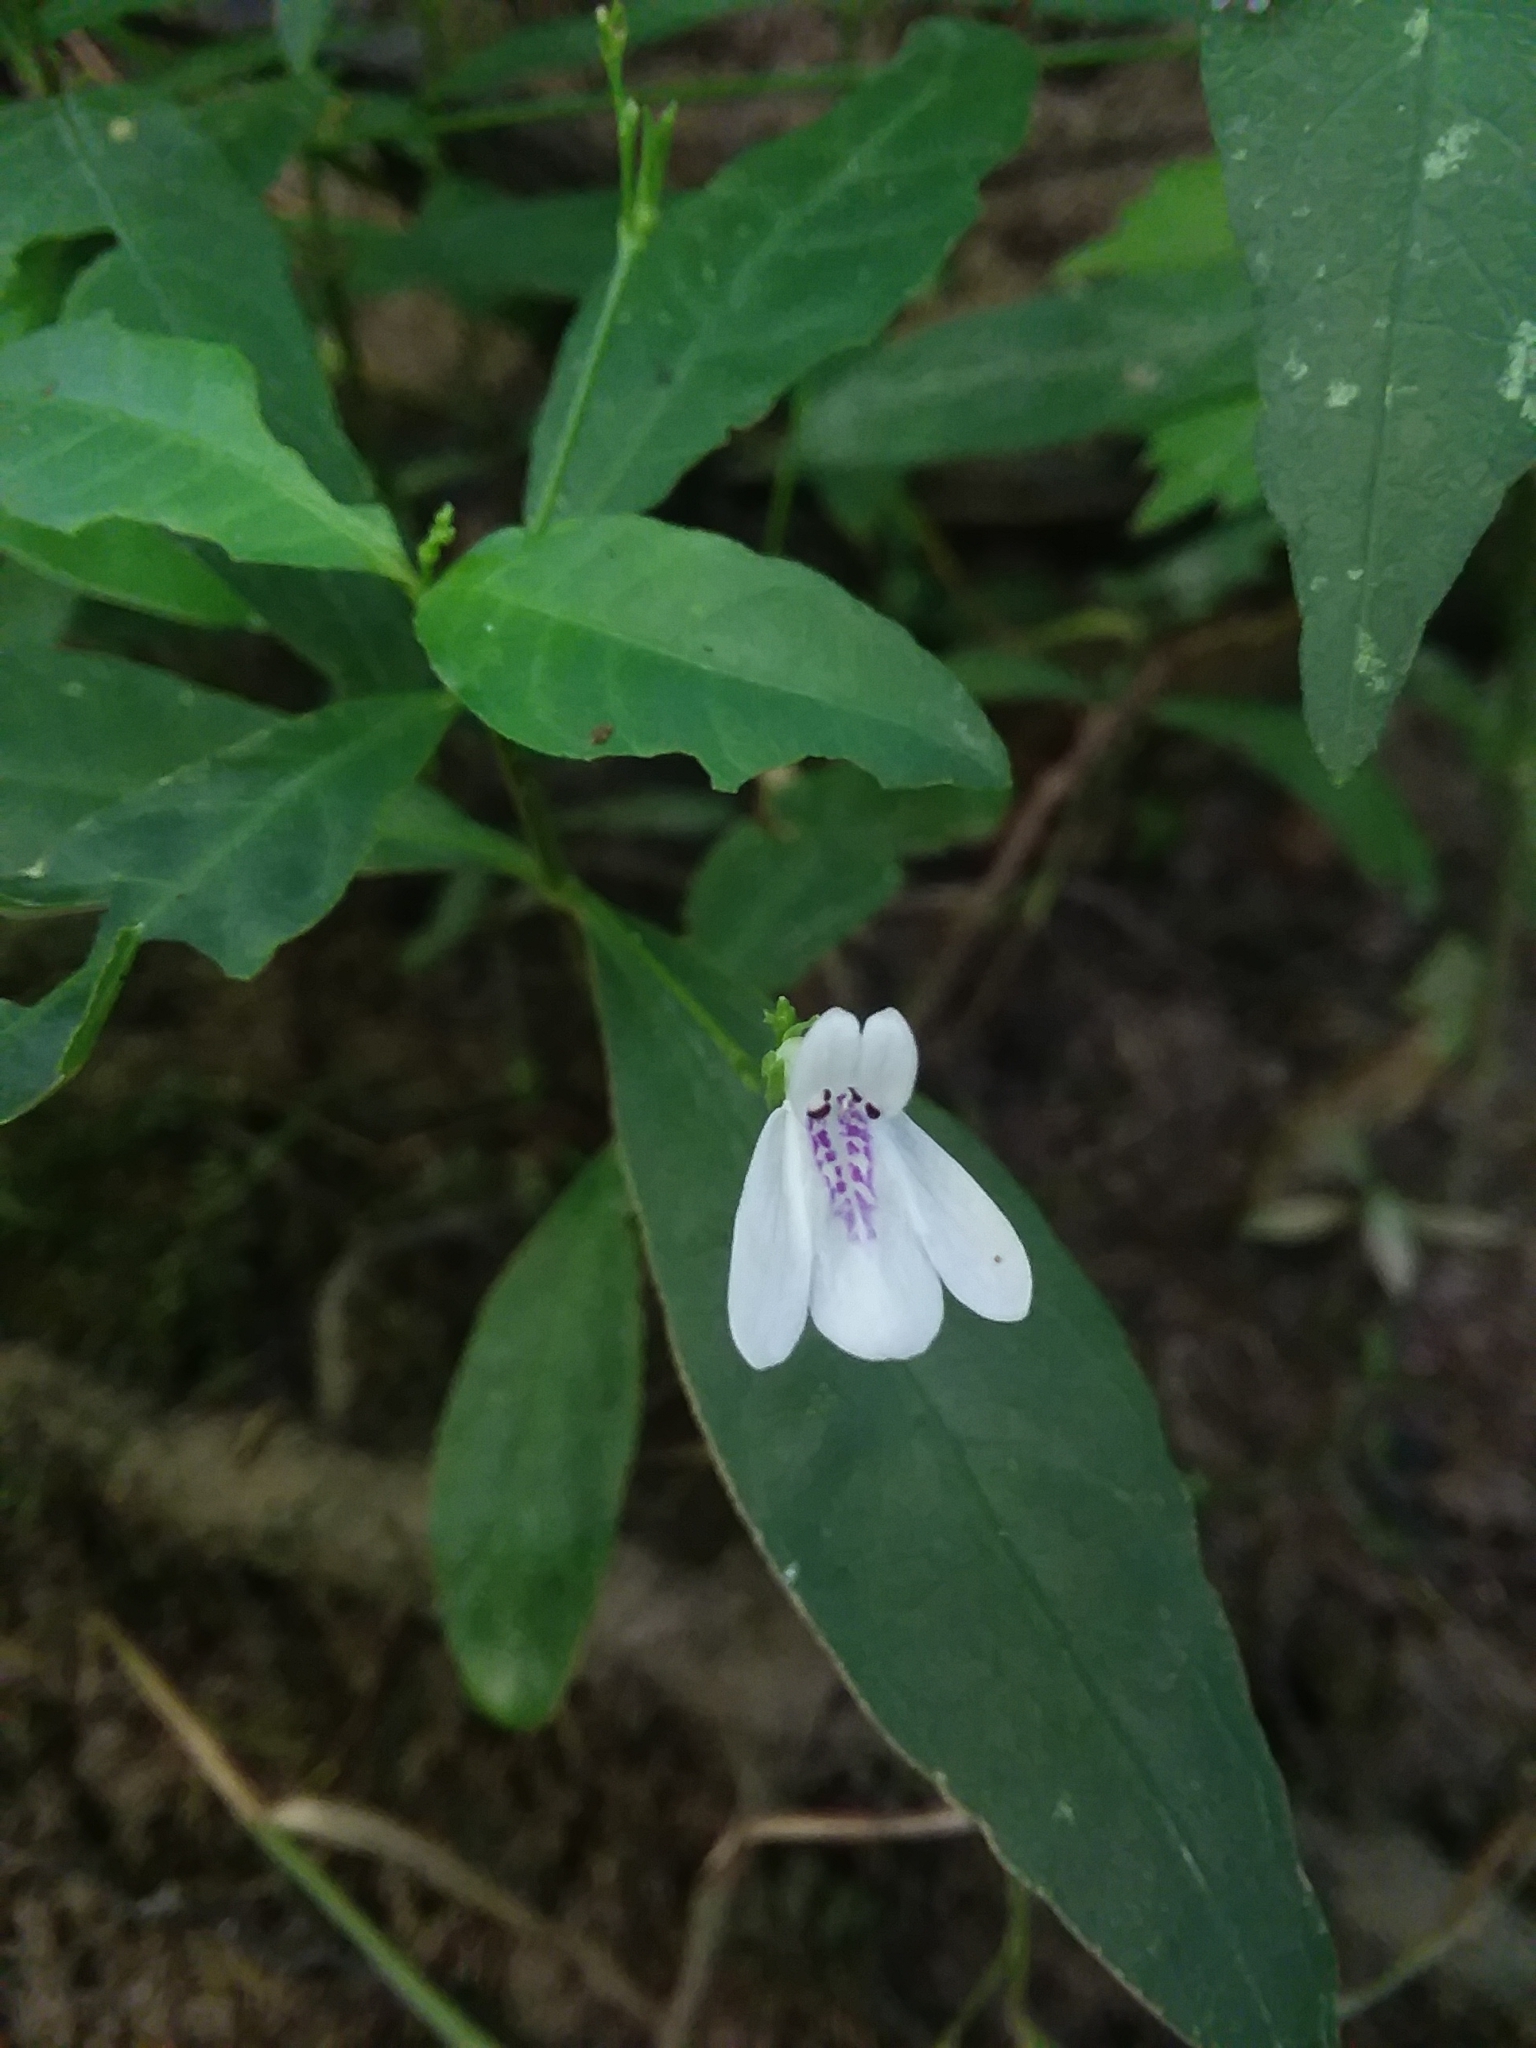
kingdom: Plantae
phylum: Tracheophyta
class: Magnoliopsida
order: Lamiales
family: Acanthaceae
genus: Justicia
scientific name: Justicia lanceolata
